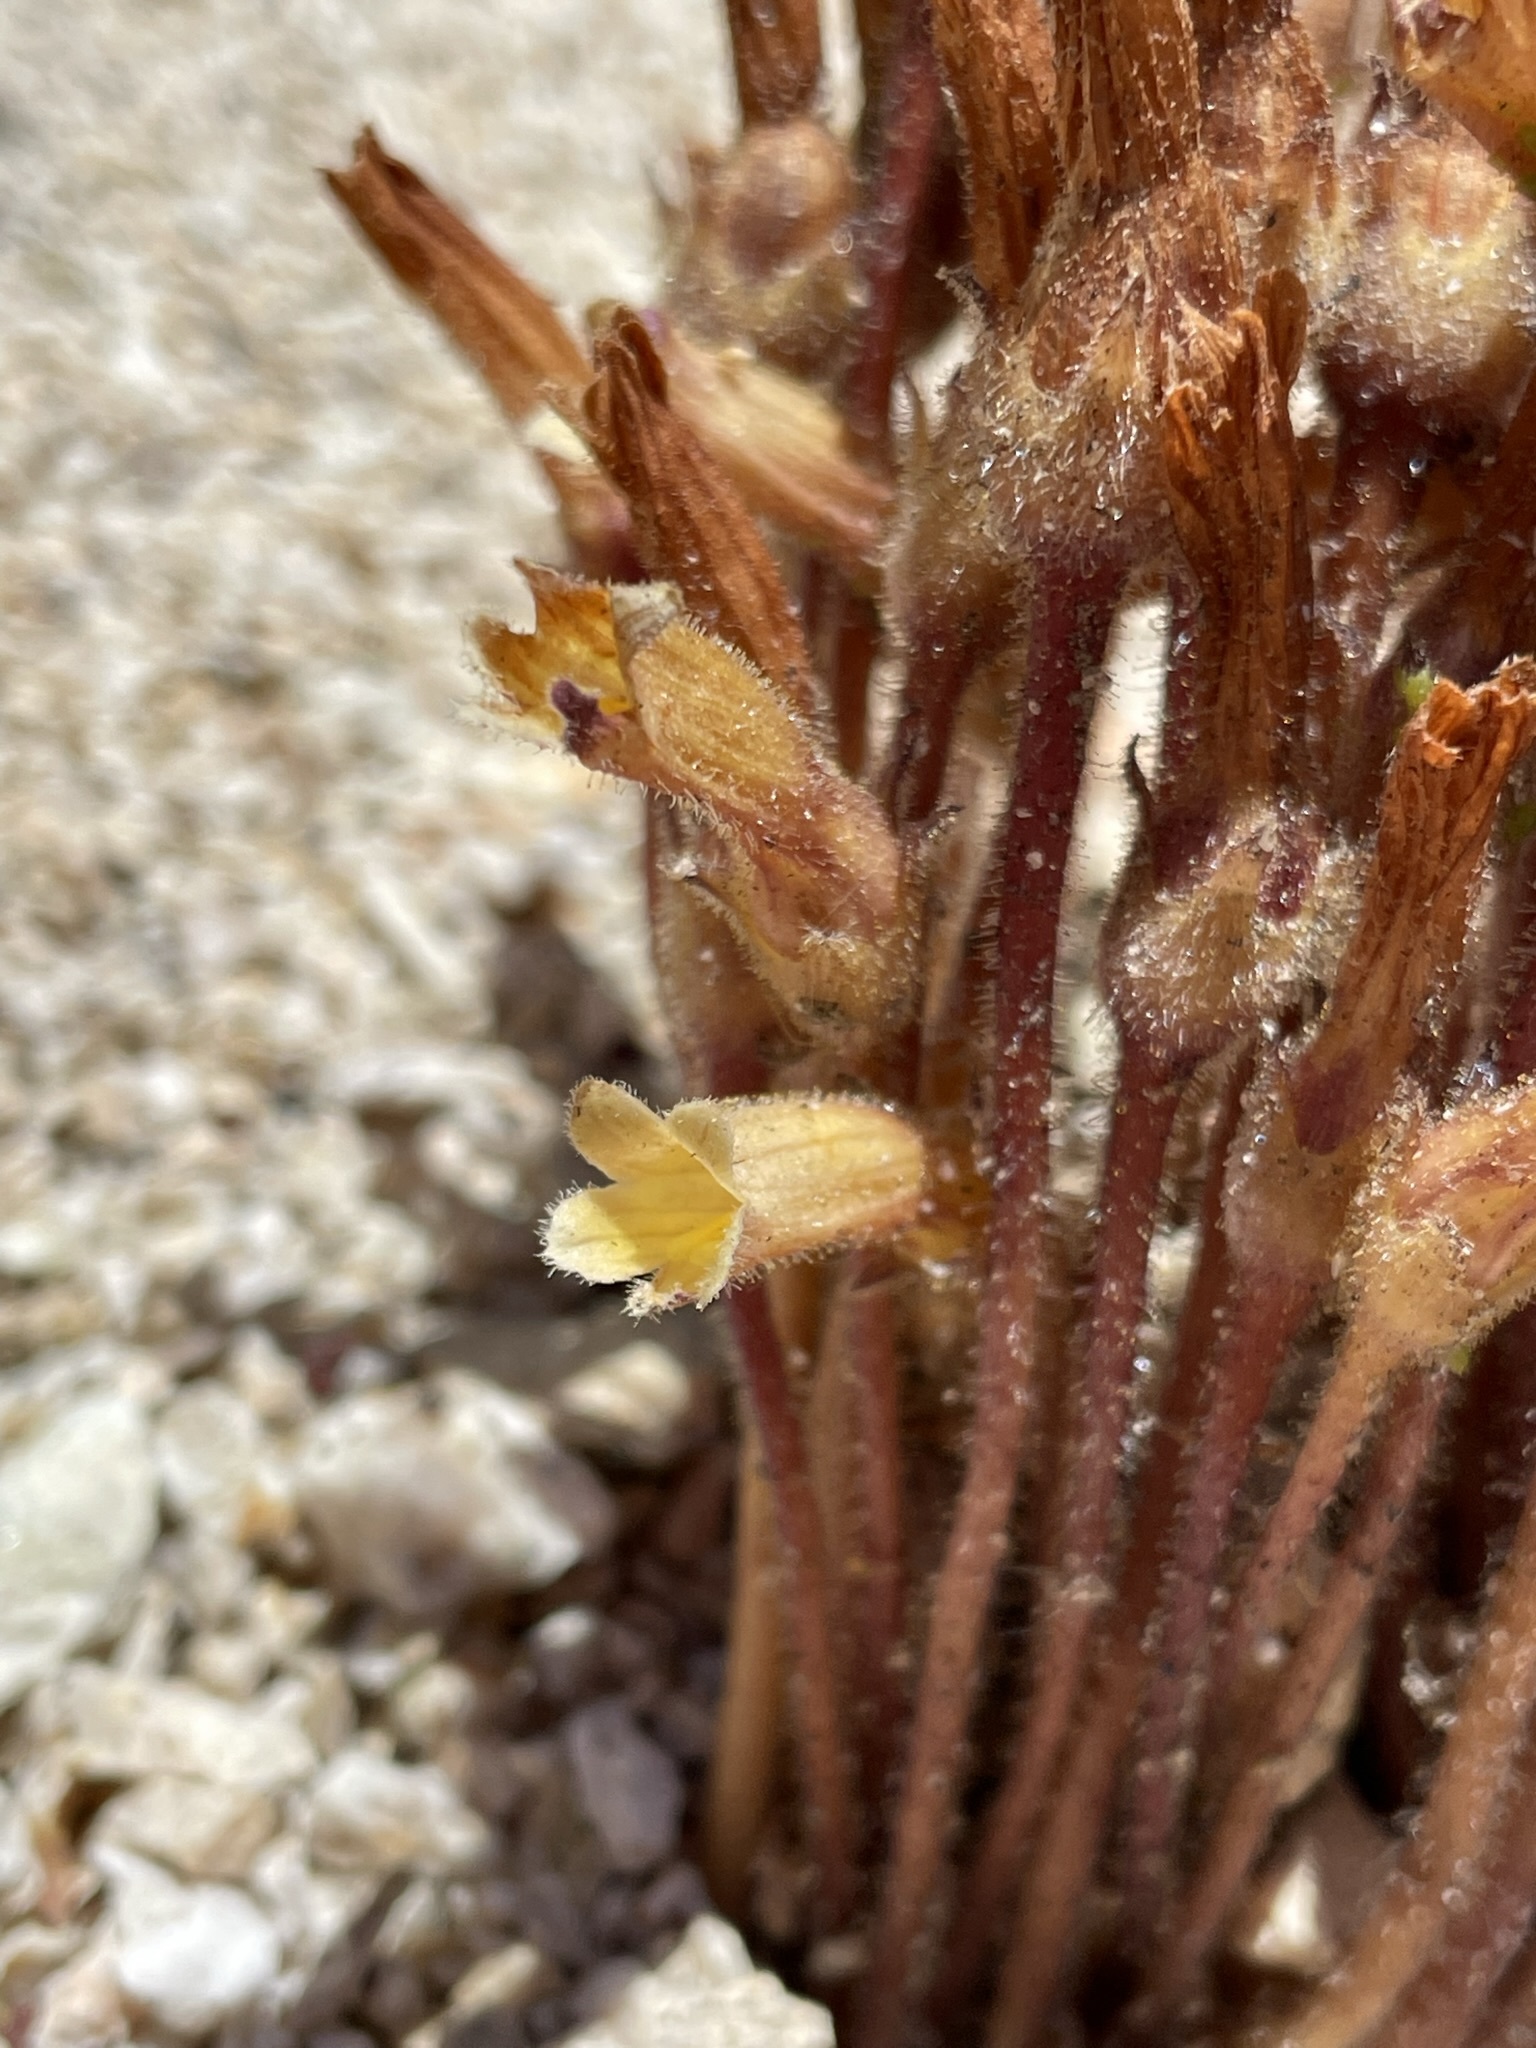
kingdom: Plantae
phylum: Tracheophyta
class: Magnoliopsida
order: Lamiales
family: Orobanchaceae
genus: Aphyllon
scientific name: Aphyllon franciscanum
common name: San francisco broomrape
